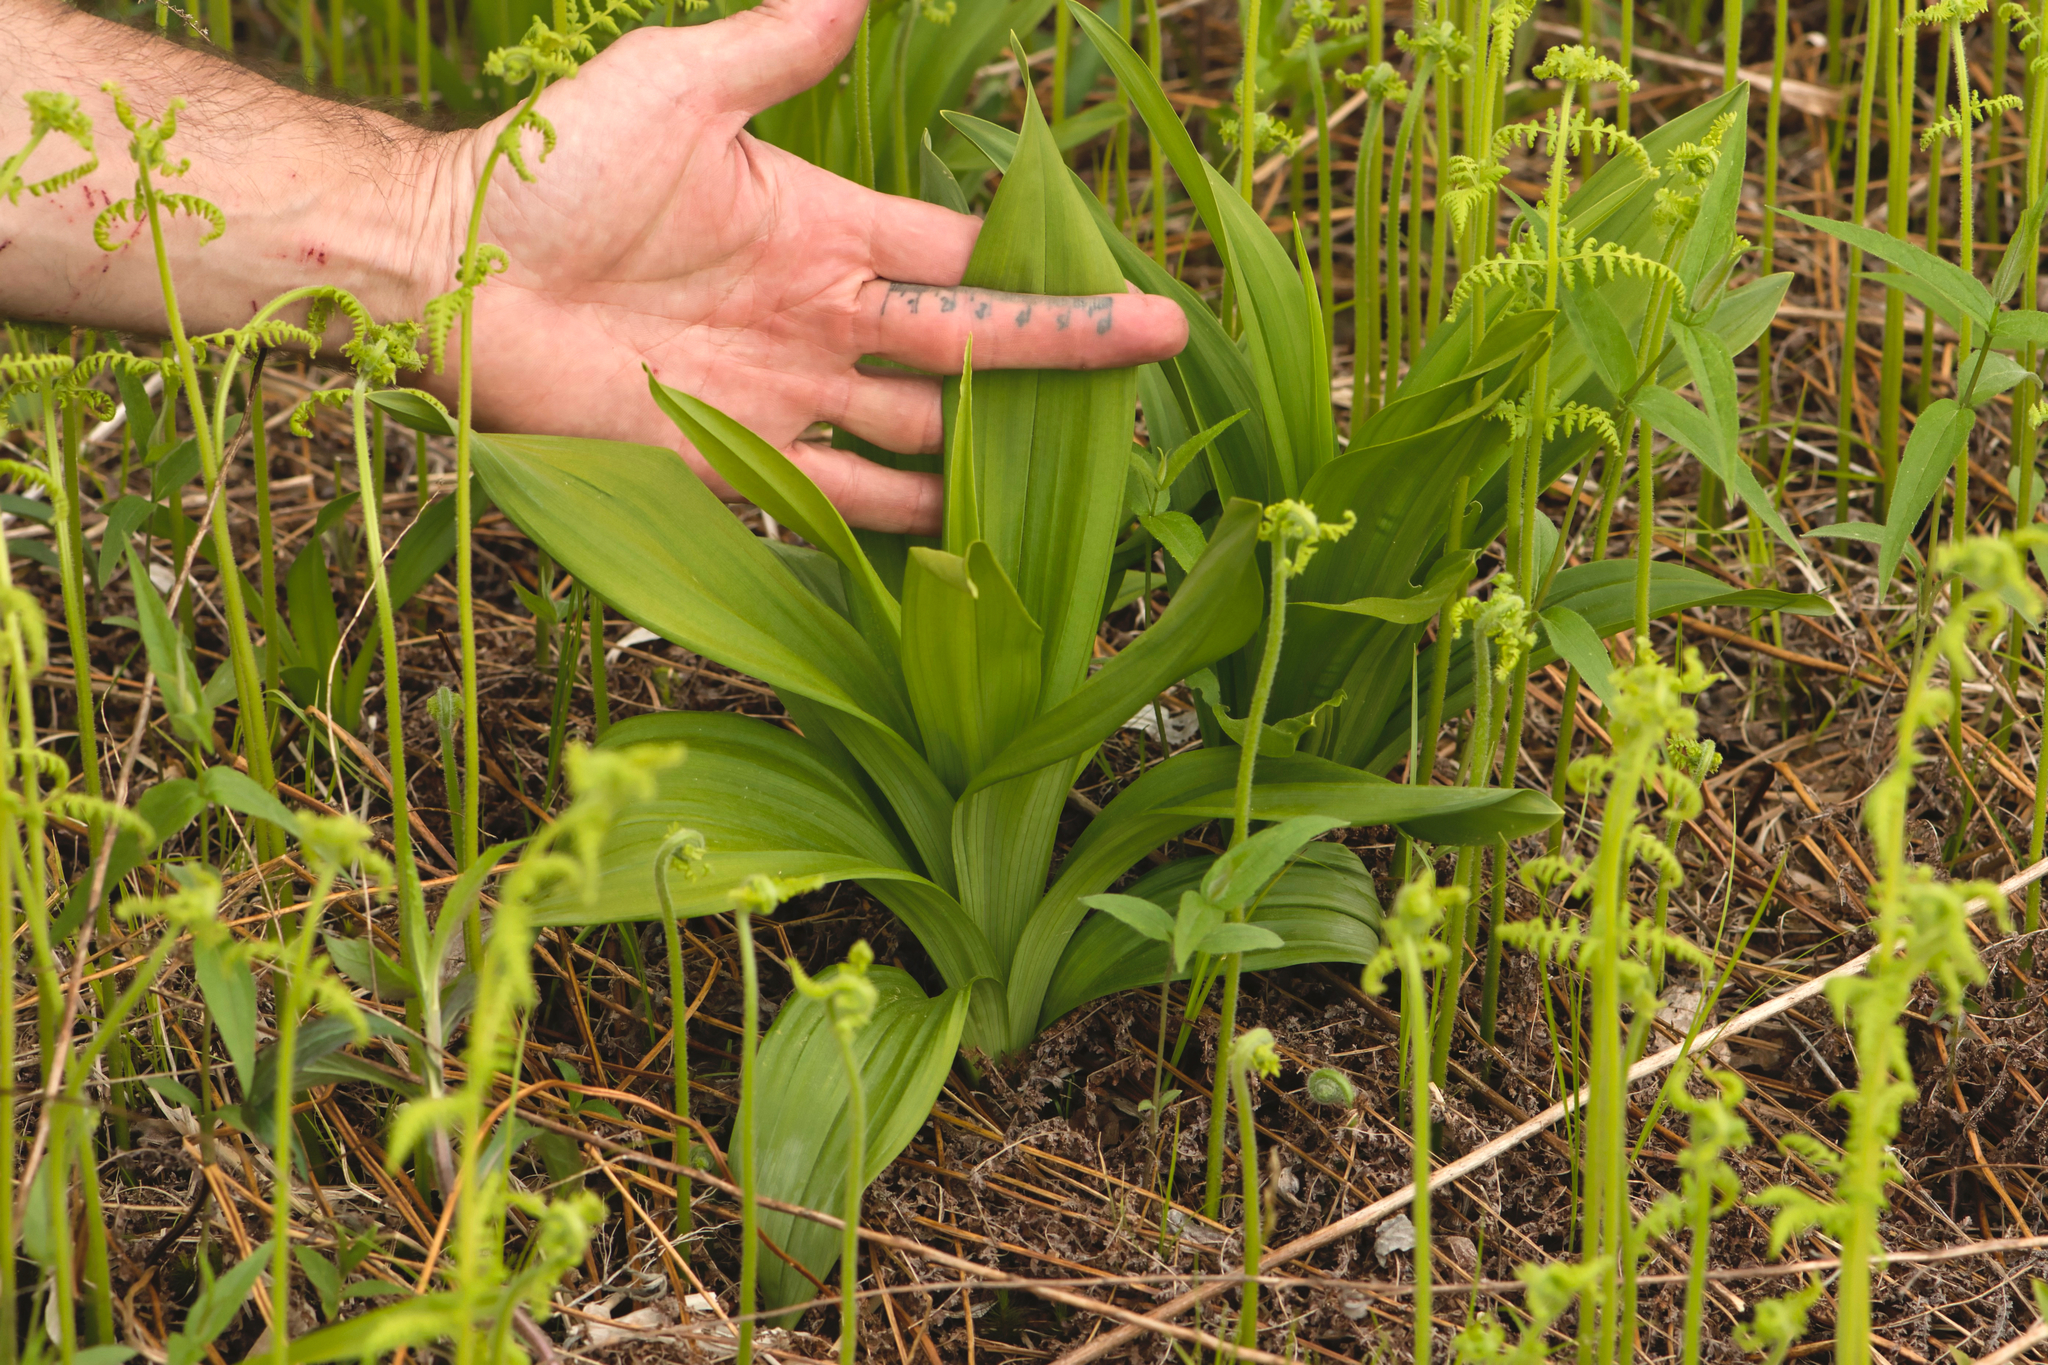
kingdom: Plantae
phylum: Tracheophyta
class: Liliopsida
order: Liliales
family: Melanthiaceae
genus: Veratrum
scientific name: Veratrum hybridum
